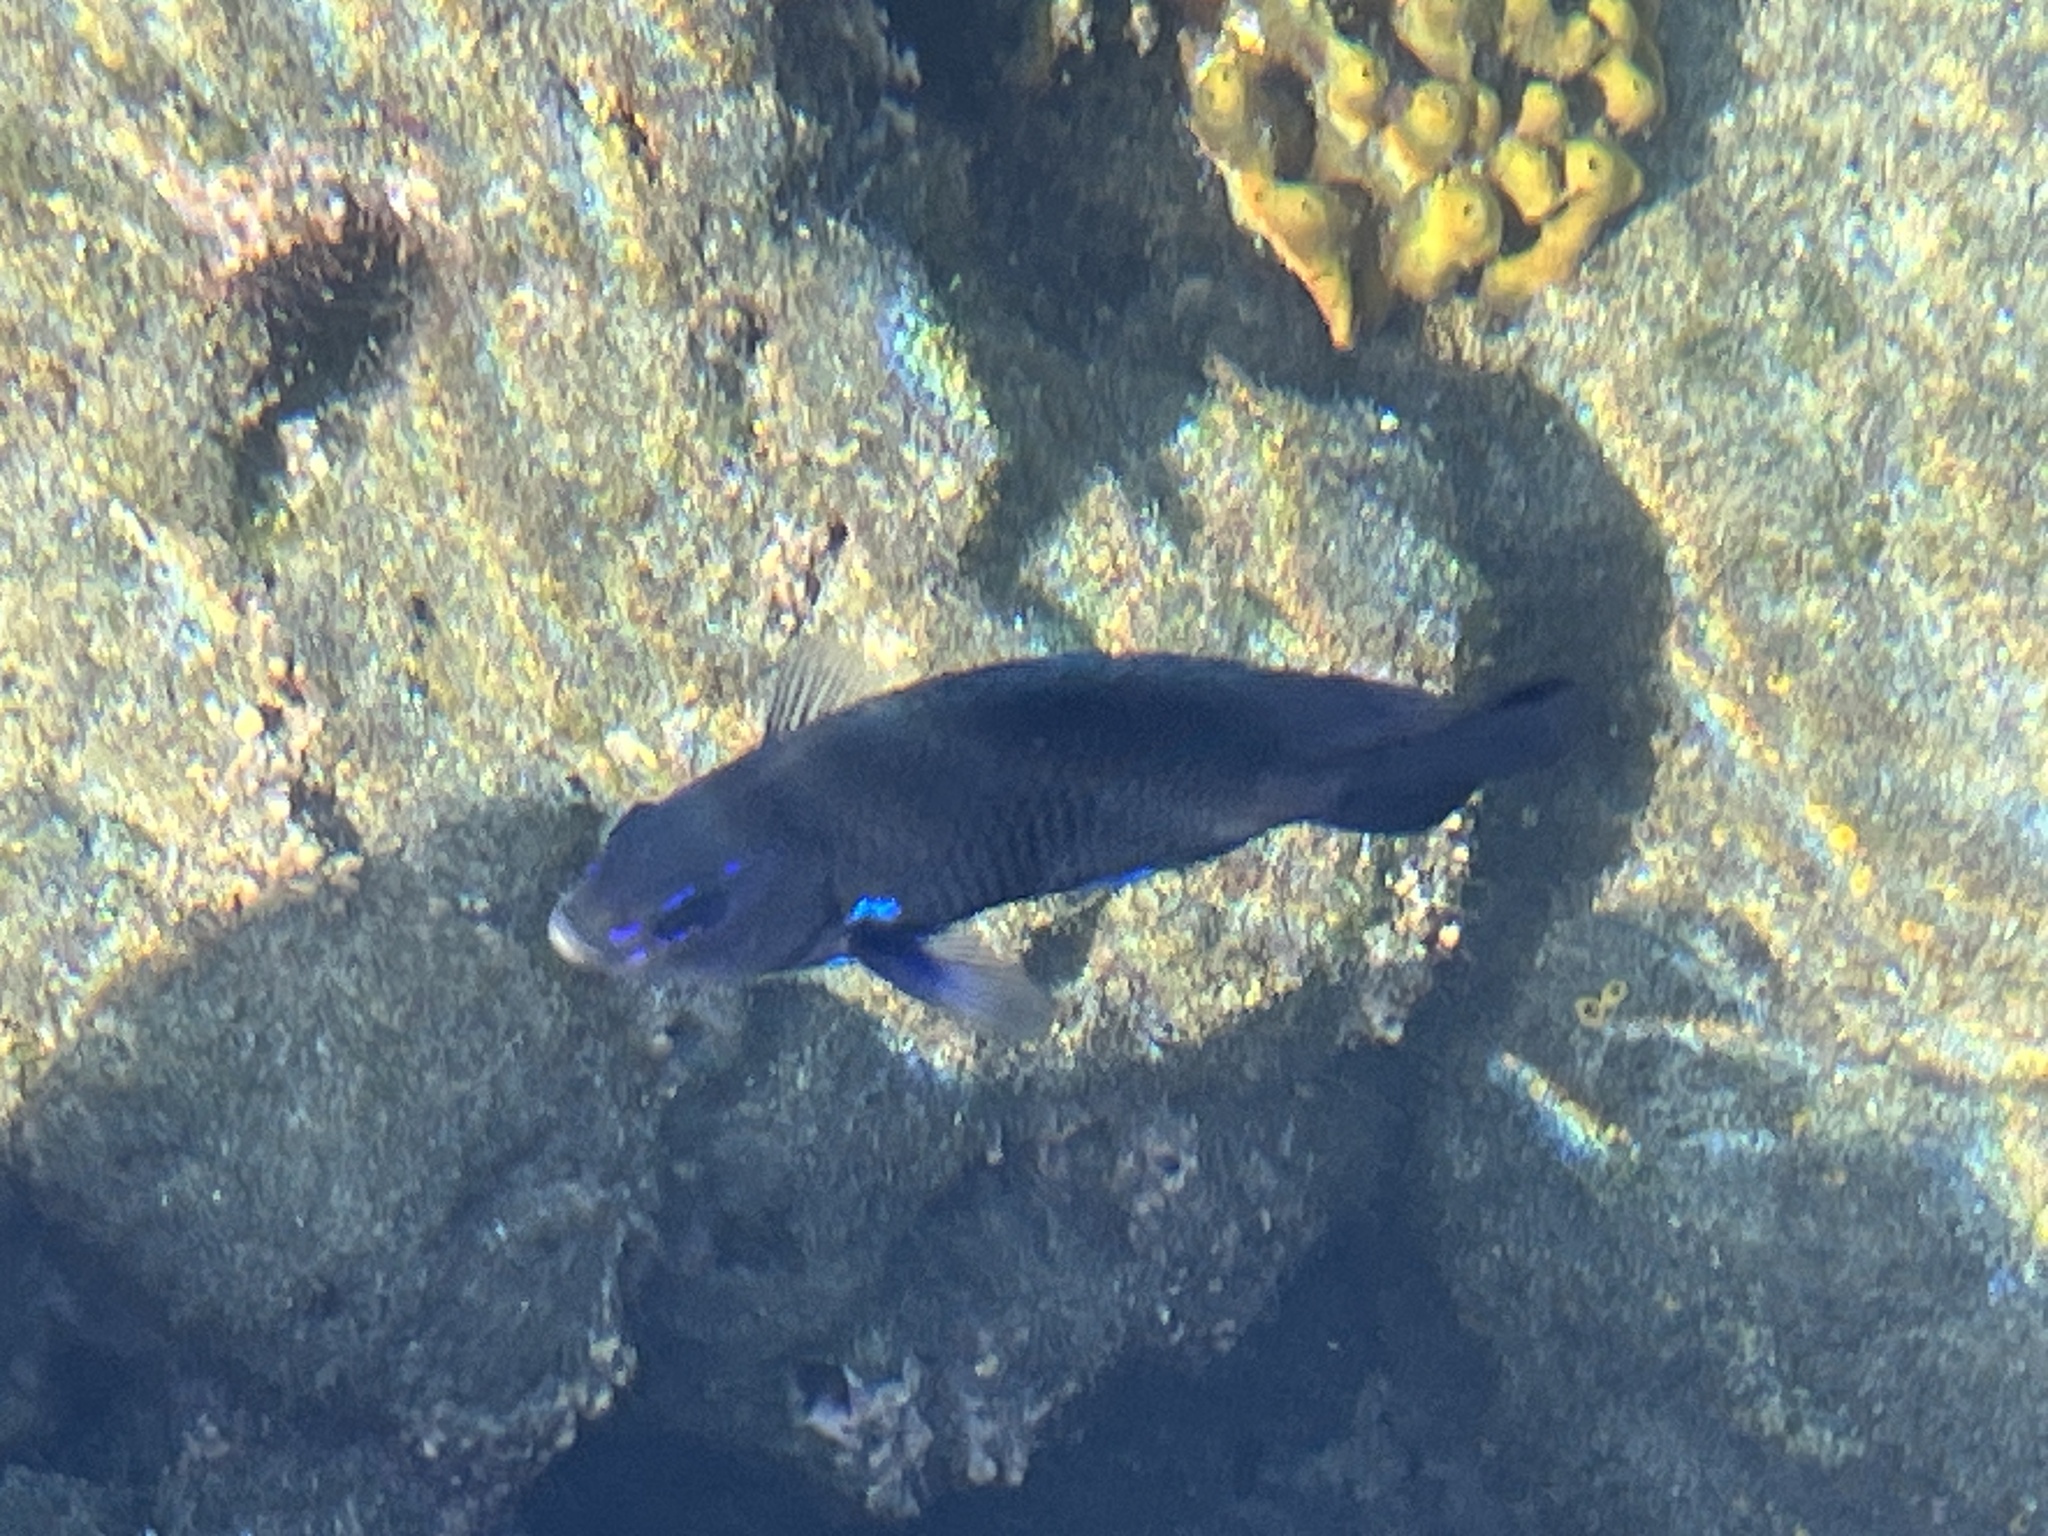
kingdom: Animalia
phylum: Chordata
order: Perciformes
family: Pomacentridae
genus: Similiparma
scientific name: Similiparma lurida
